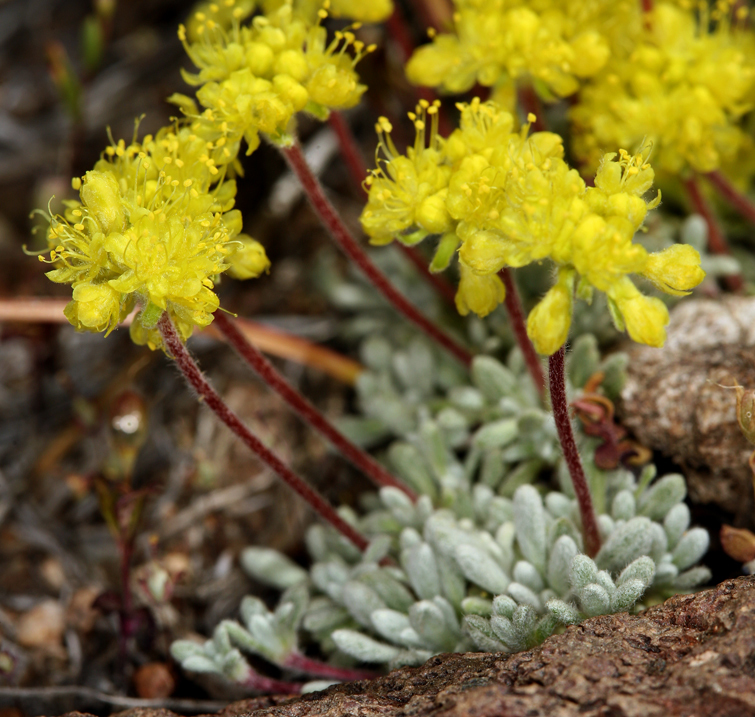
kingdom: Plantae
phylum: Tracheophyta
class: Magnoliopsida
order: Caryophyllales
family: Polygonaceae
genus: Eriogonum
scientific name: Eriogonum caespitosum
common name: Matted wild buckwheat
